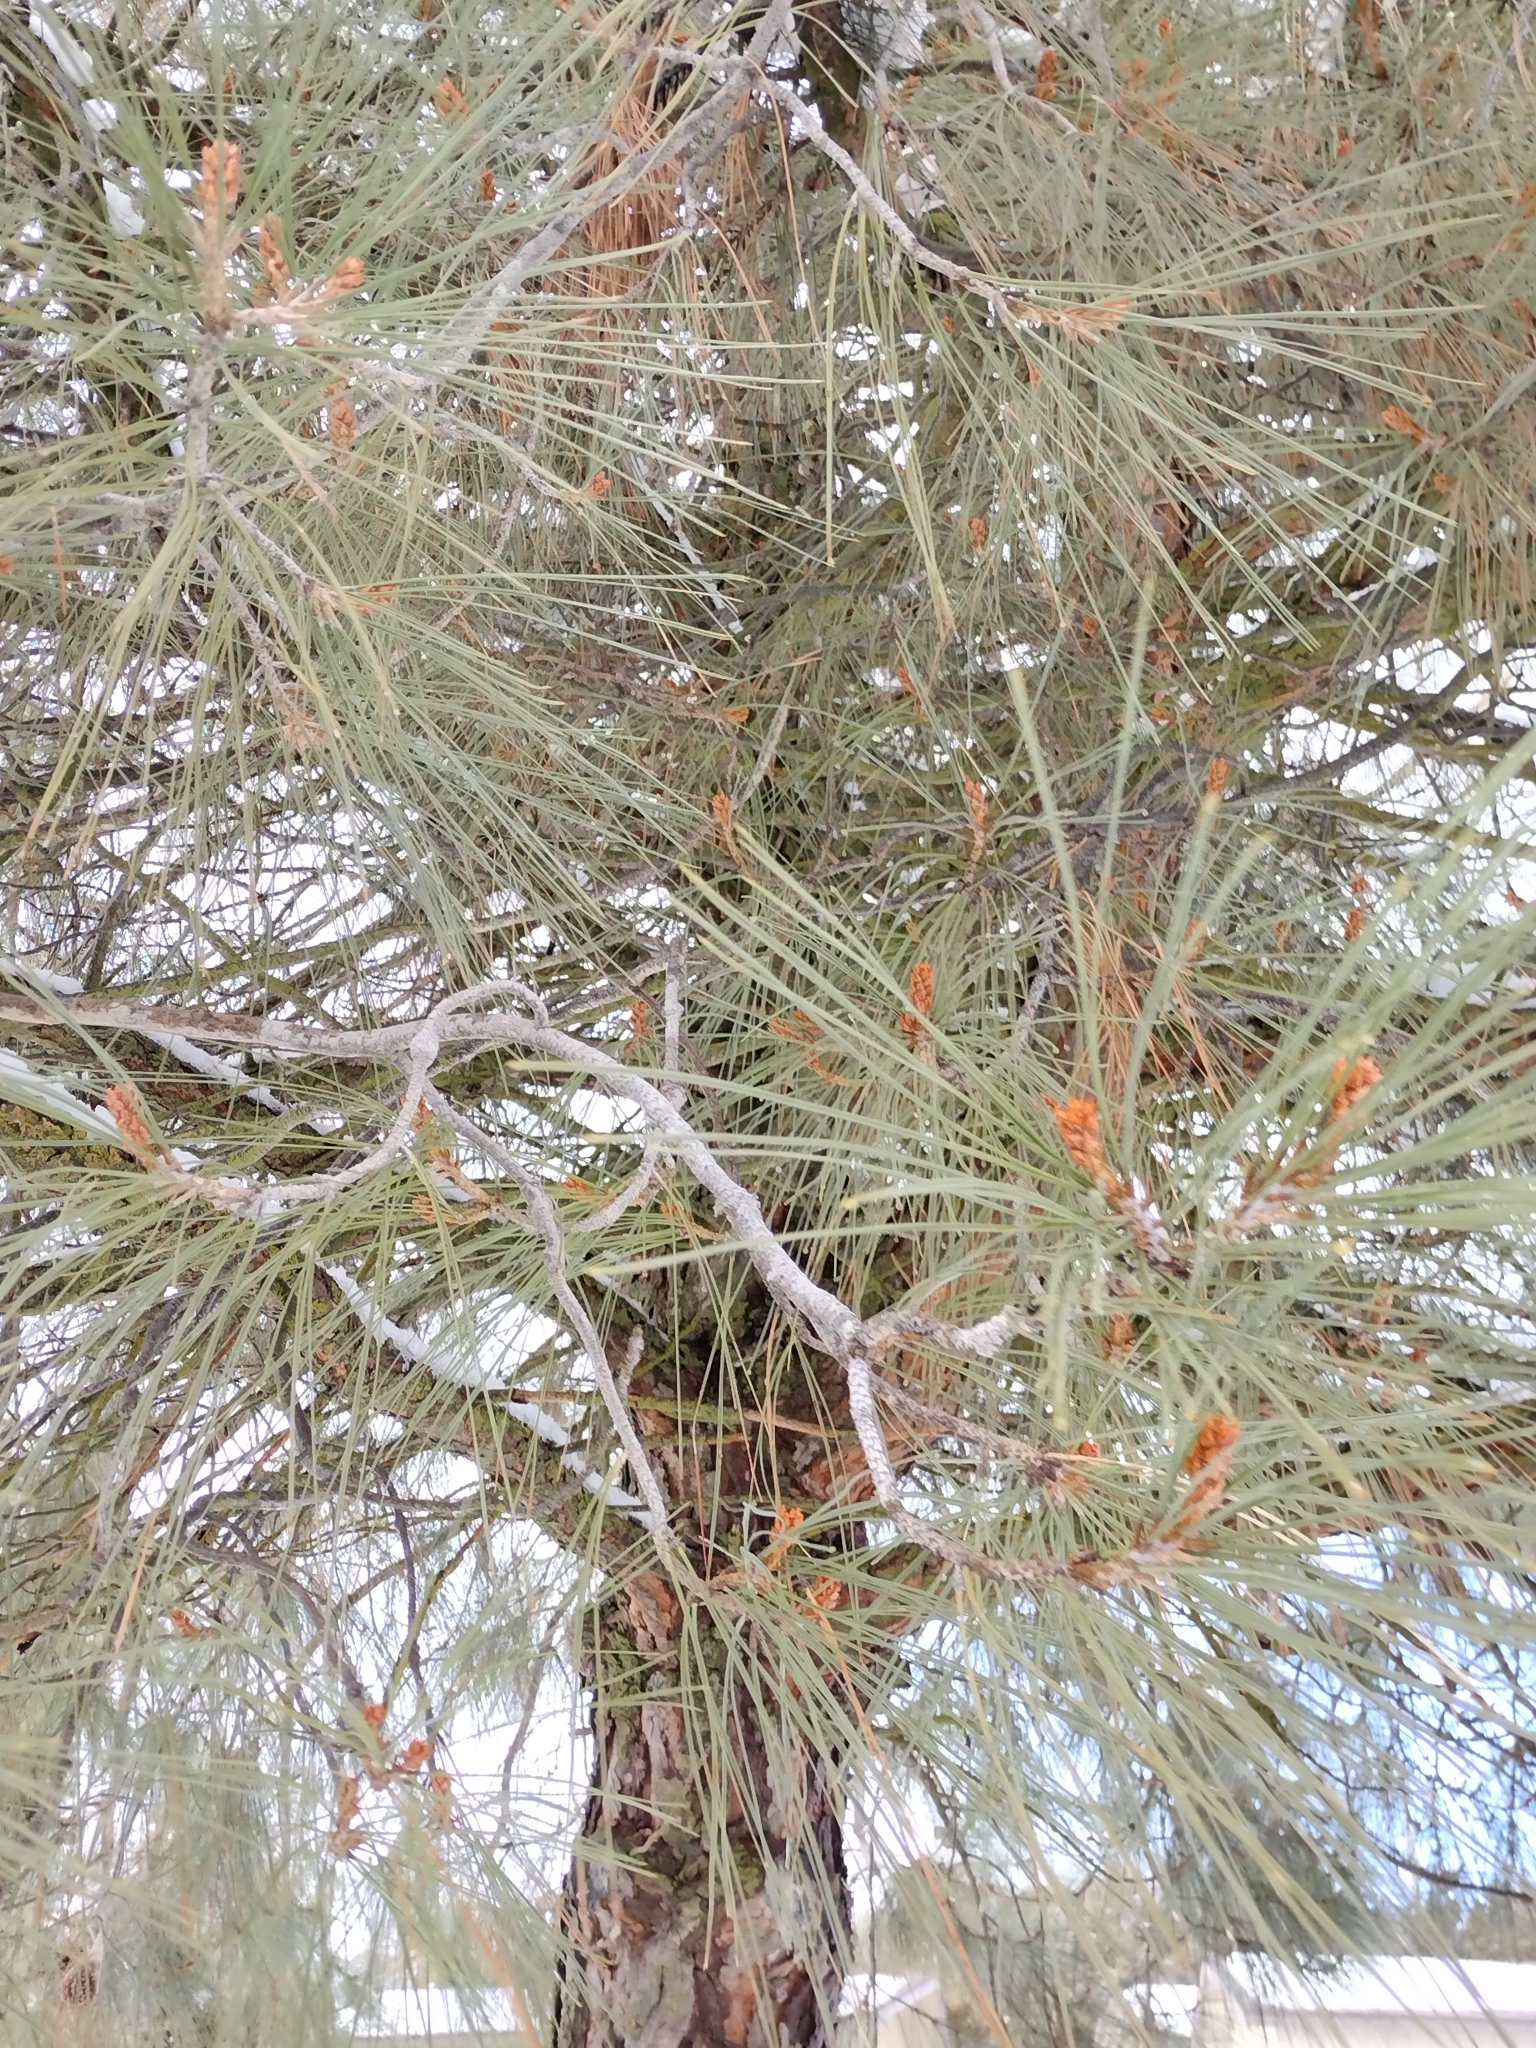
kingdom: Plantae
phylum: Tracheophyta
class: Pinopsida
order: Pinales
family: Pinaceae
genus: Pinus
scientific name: Pinus sabiniana
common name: Bull pine
